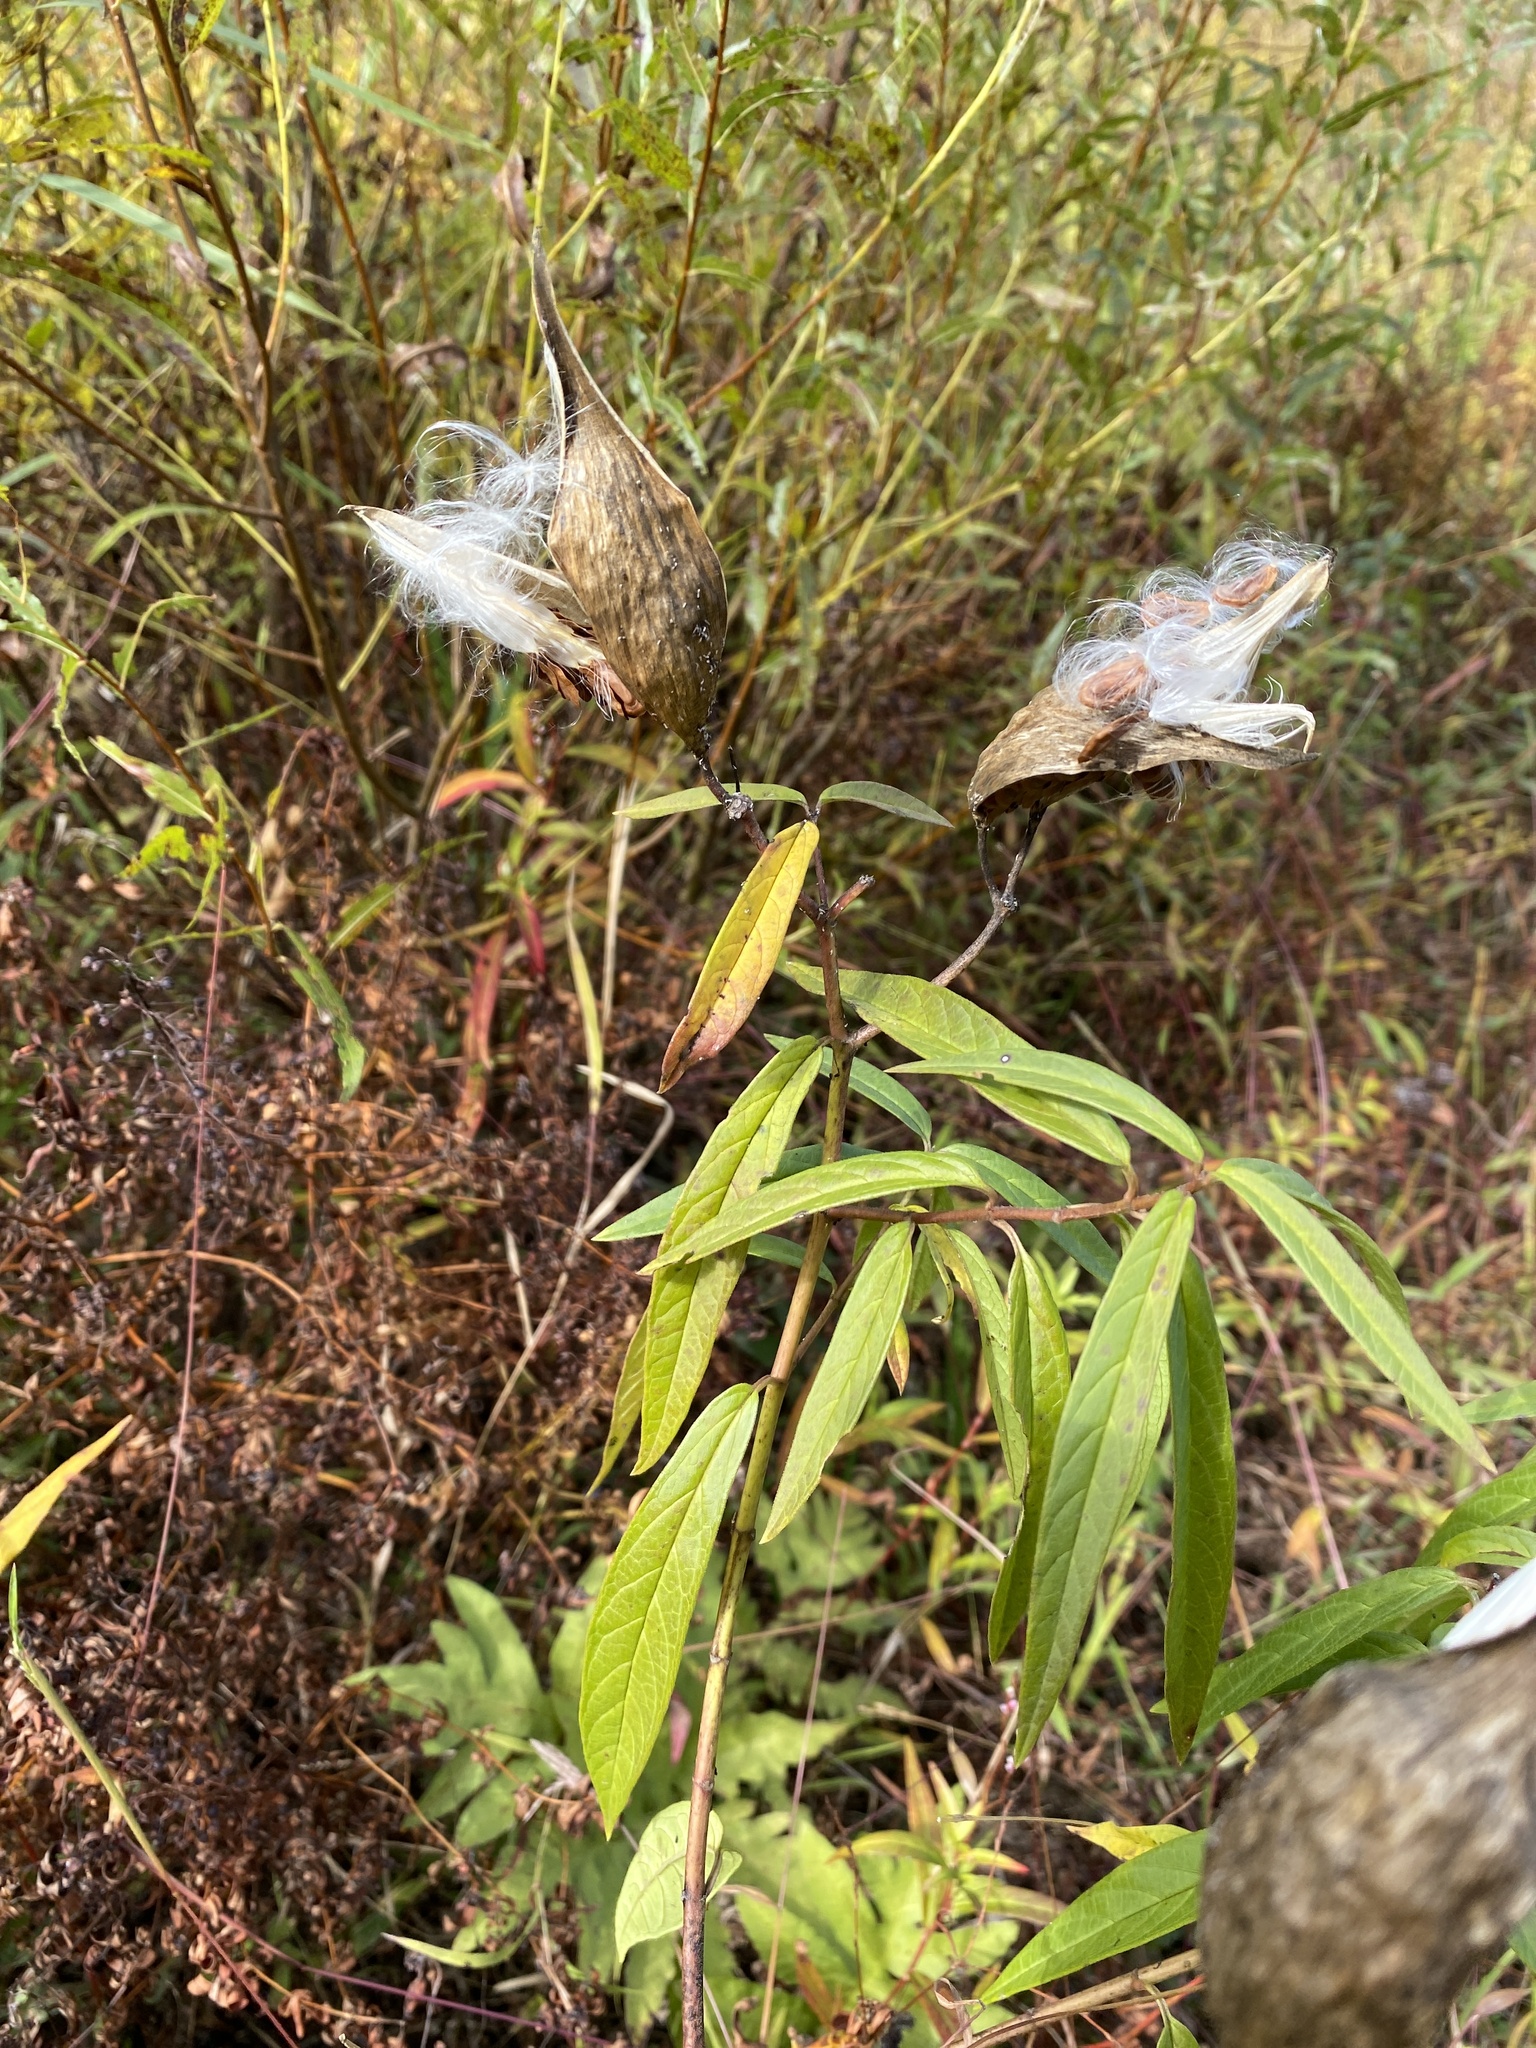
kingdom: Plantae
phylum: Tracheophyta
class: Magnoliopsida
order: Gentianales
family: Apocynaceae
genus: Asclepias
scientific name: Asclepias incarnata
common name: Swamp milkweed
